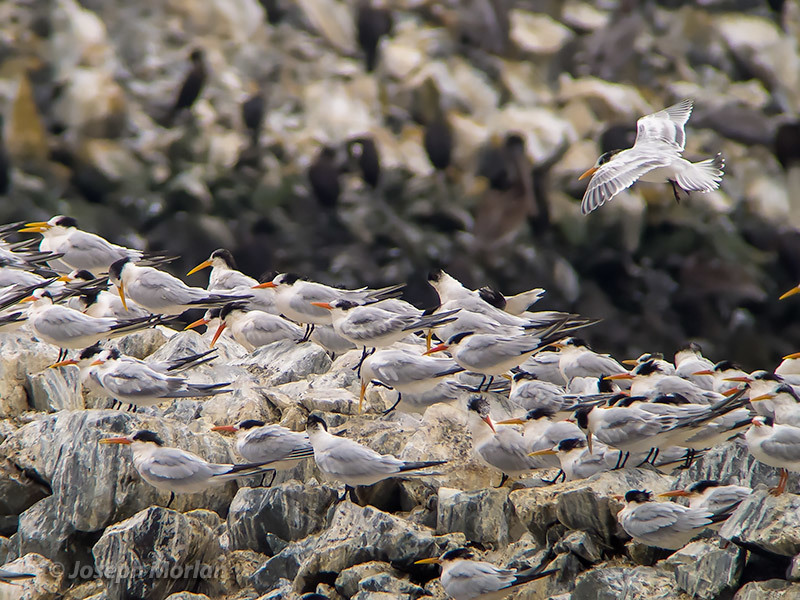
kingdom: Animalia
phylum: Chordata
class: Aves
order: Charadriiformes
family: Laridae
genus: Thalasseus
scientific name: Thalasseus elegans
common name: Elegant tern
